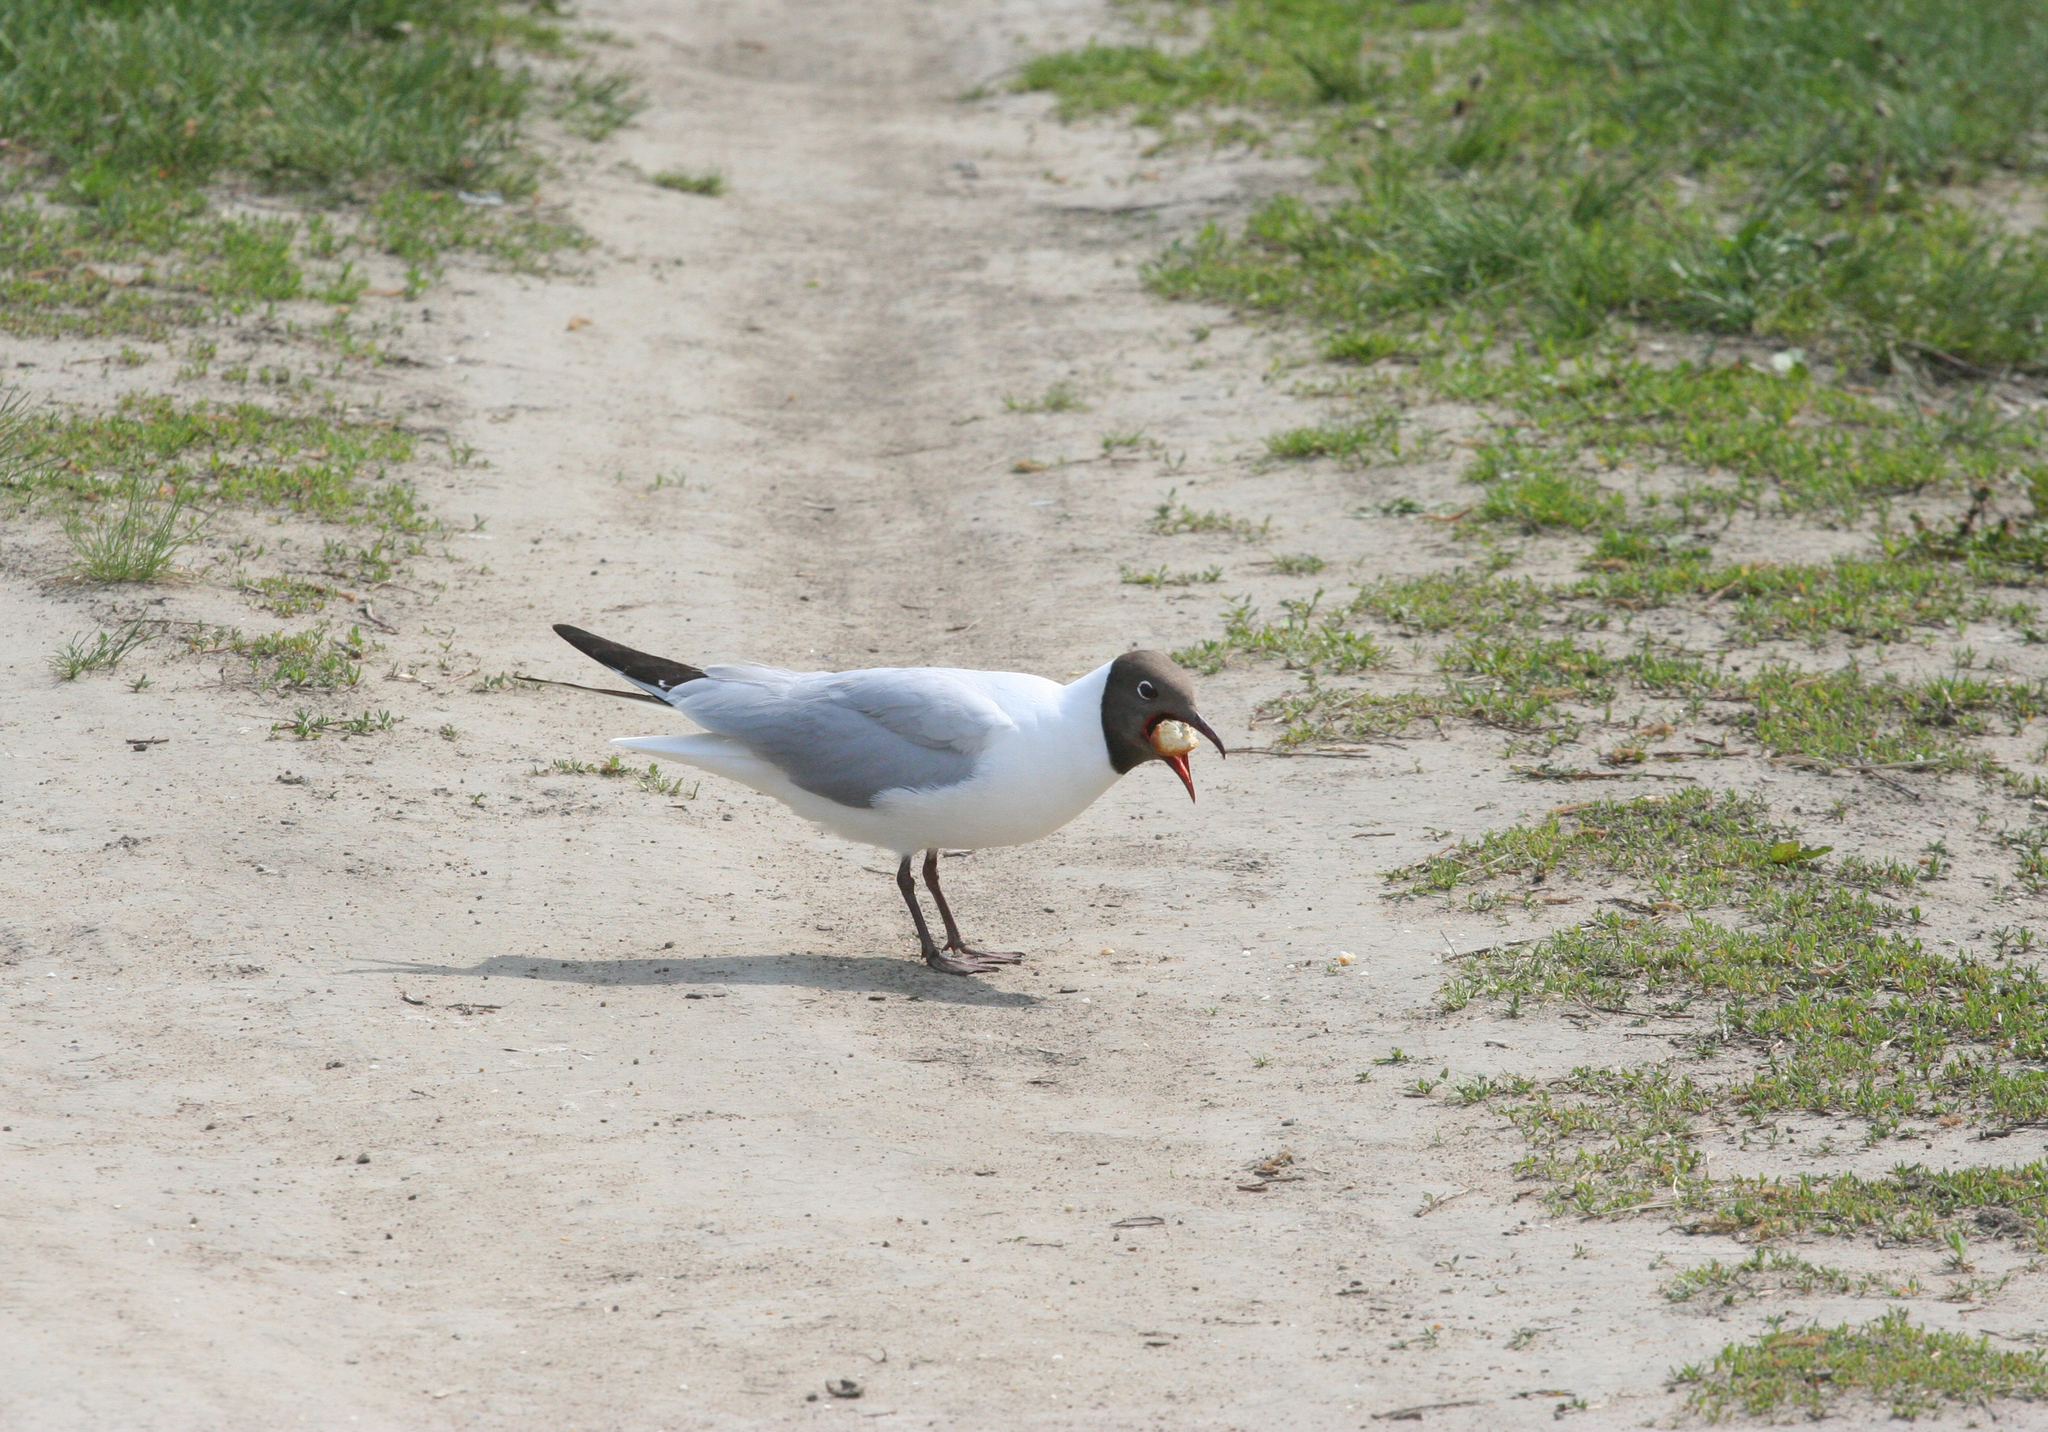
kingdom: Animalia
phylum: Chordata
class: Aves
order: Charadriiformes
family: Laridae
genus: Chroicocephalus
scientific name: Chroicocephalus ridibundus
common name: Black-headed gull
